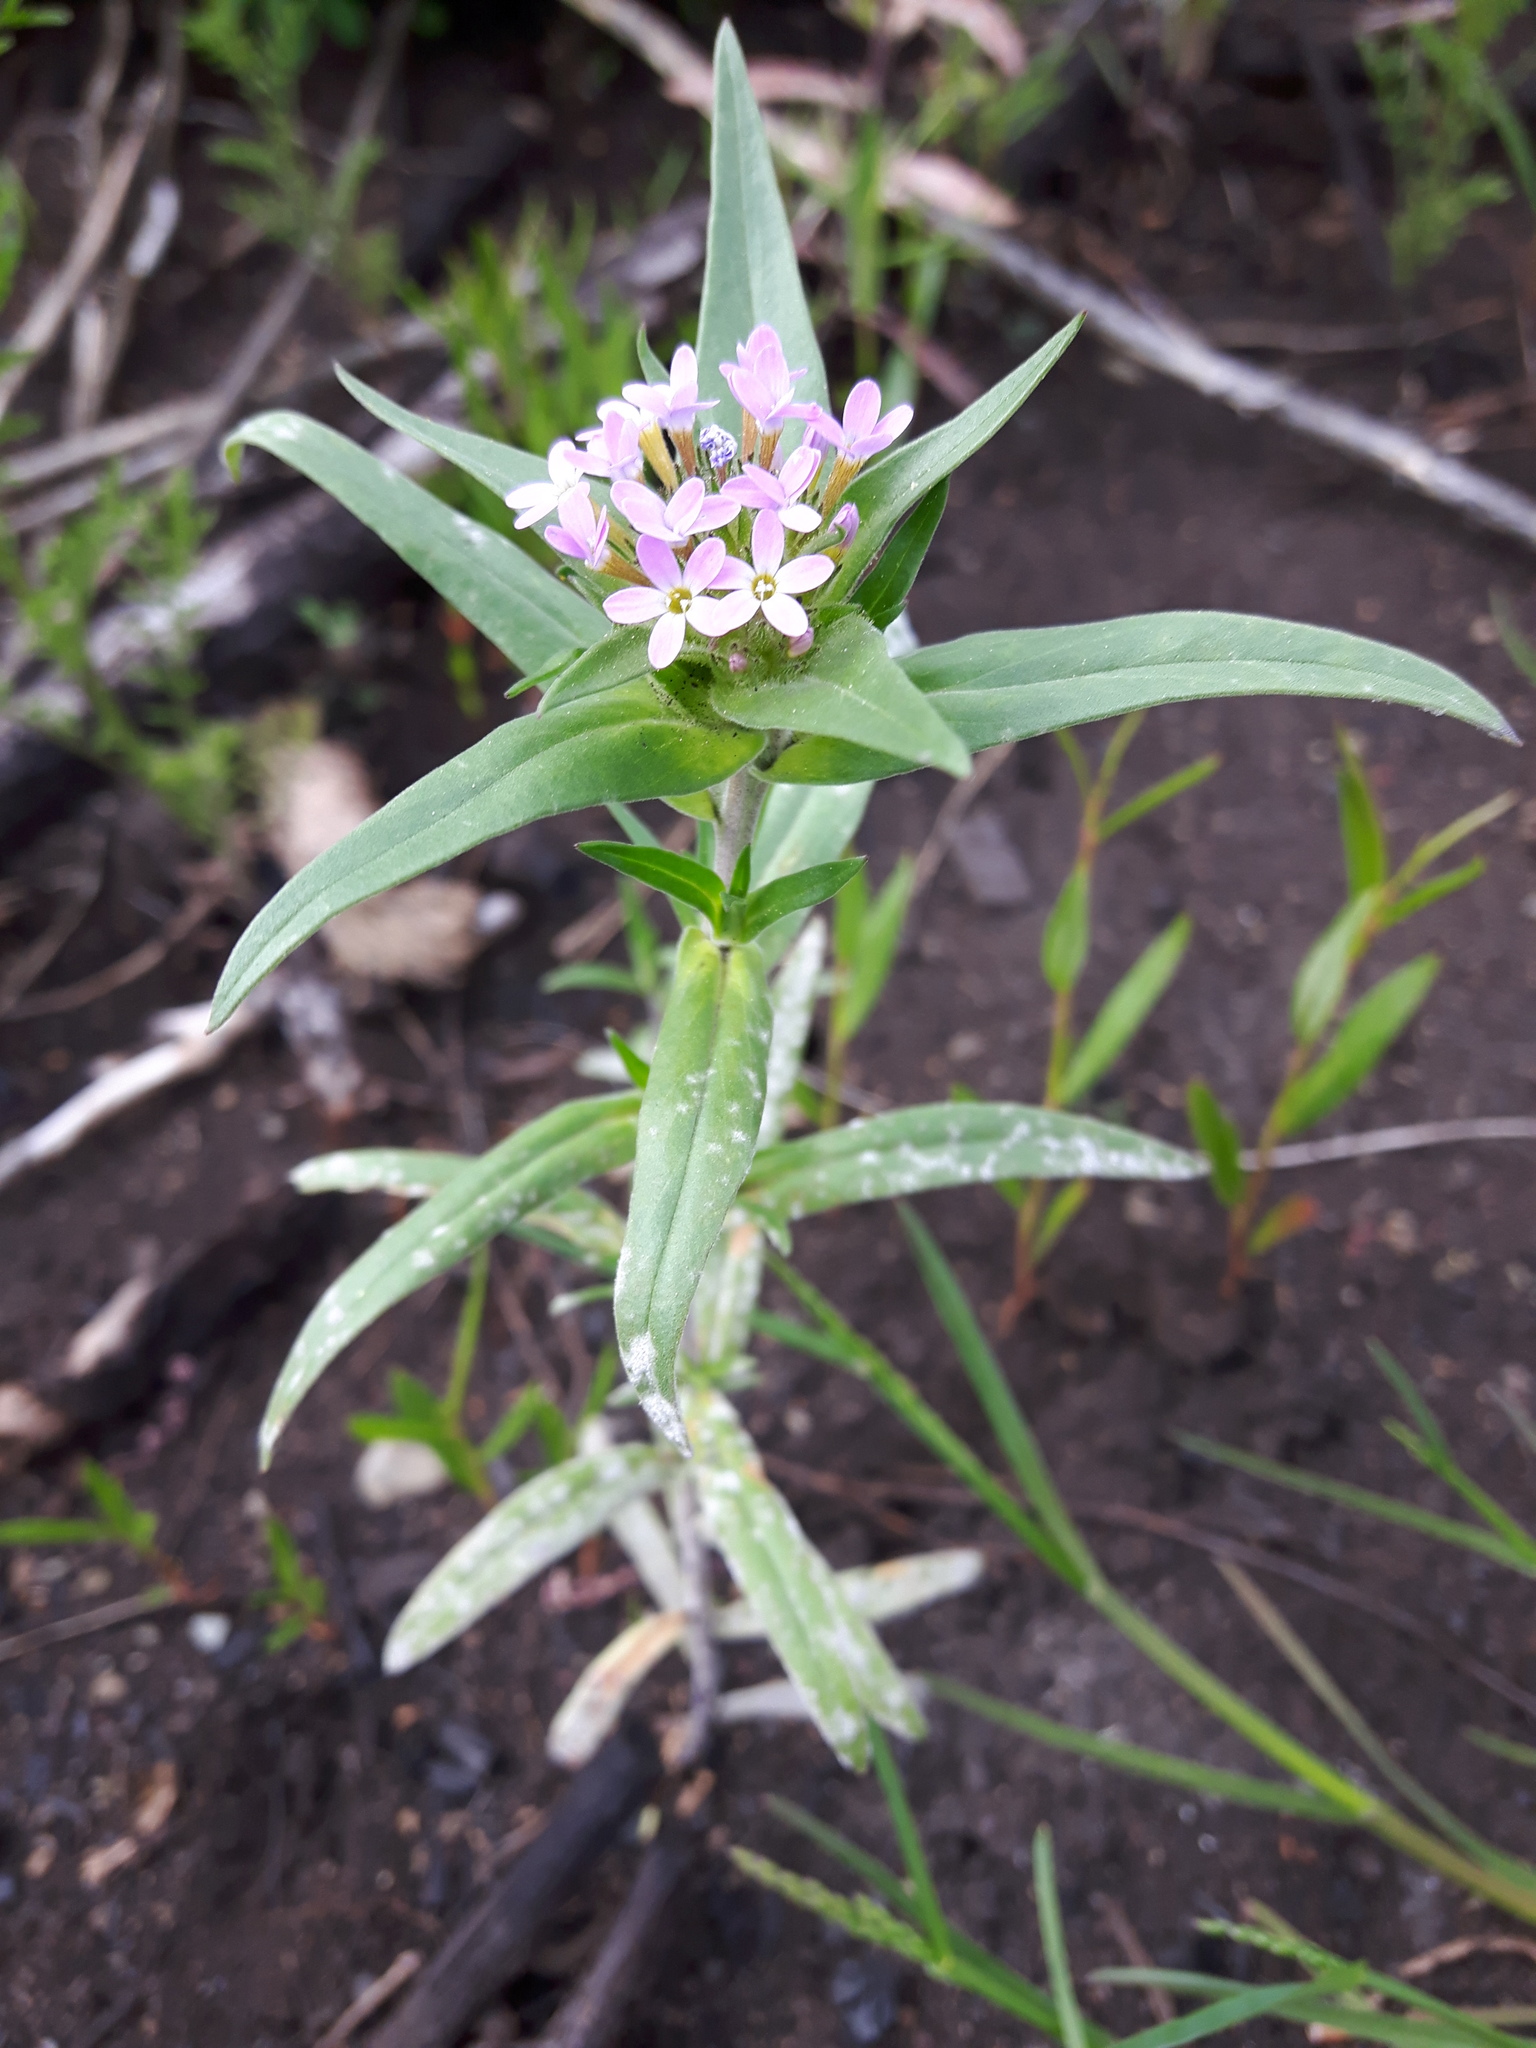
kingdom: Plantae
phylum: Tracheophyta
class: Magnoliopsida
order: Ericales
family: Polemoniaceae
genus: Collomia
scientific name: Collomia linearis
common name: Tiny trumpet
